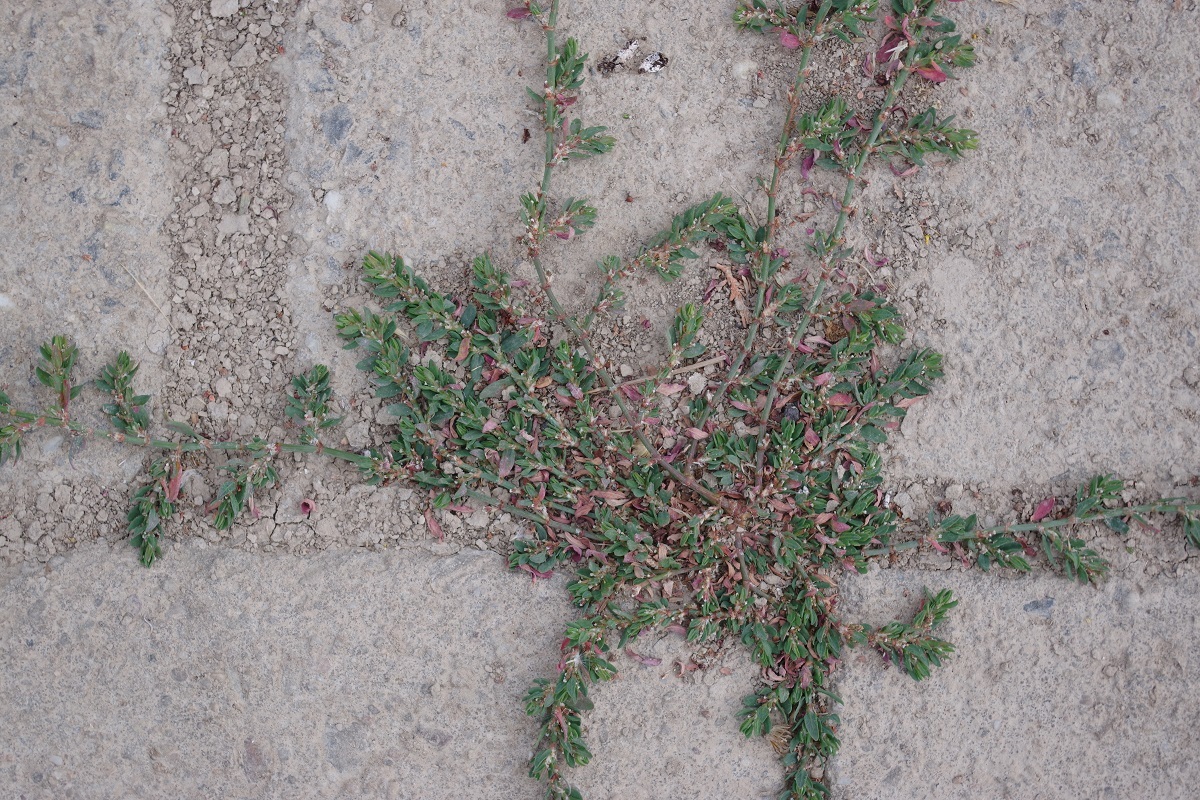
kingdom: Plantae
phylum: Tracheophyta
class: Magnoliopsida
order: Caryophyllales
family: Polygonaceae
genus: Polygonum
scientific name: Polygonum arenastrum
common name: Equal-leaved knotgrass
